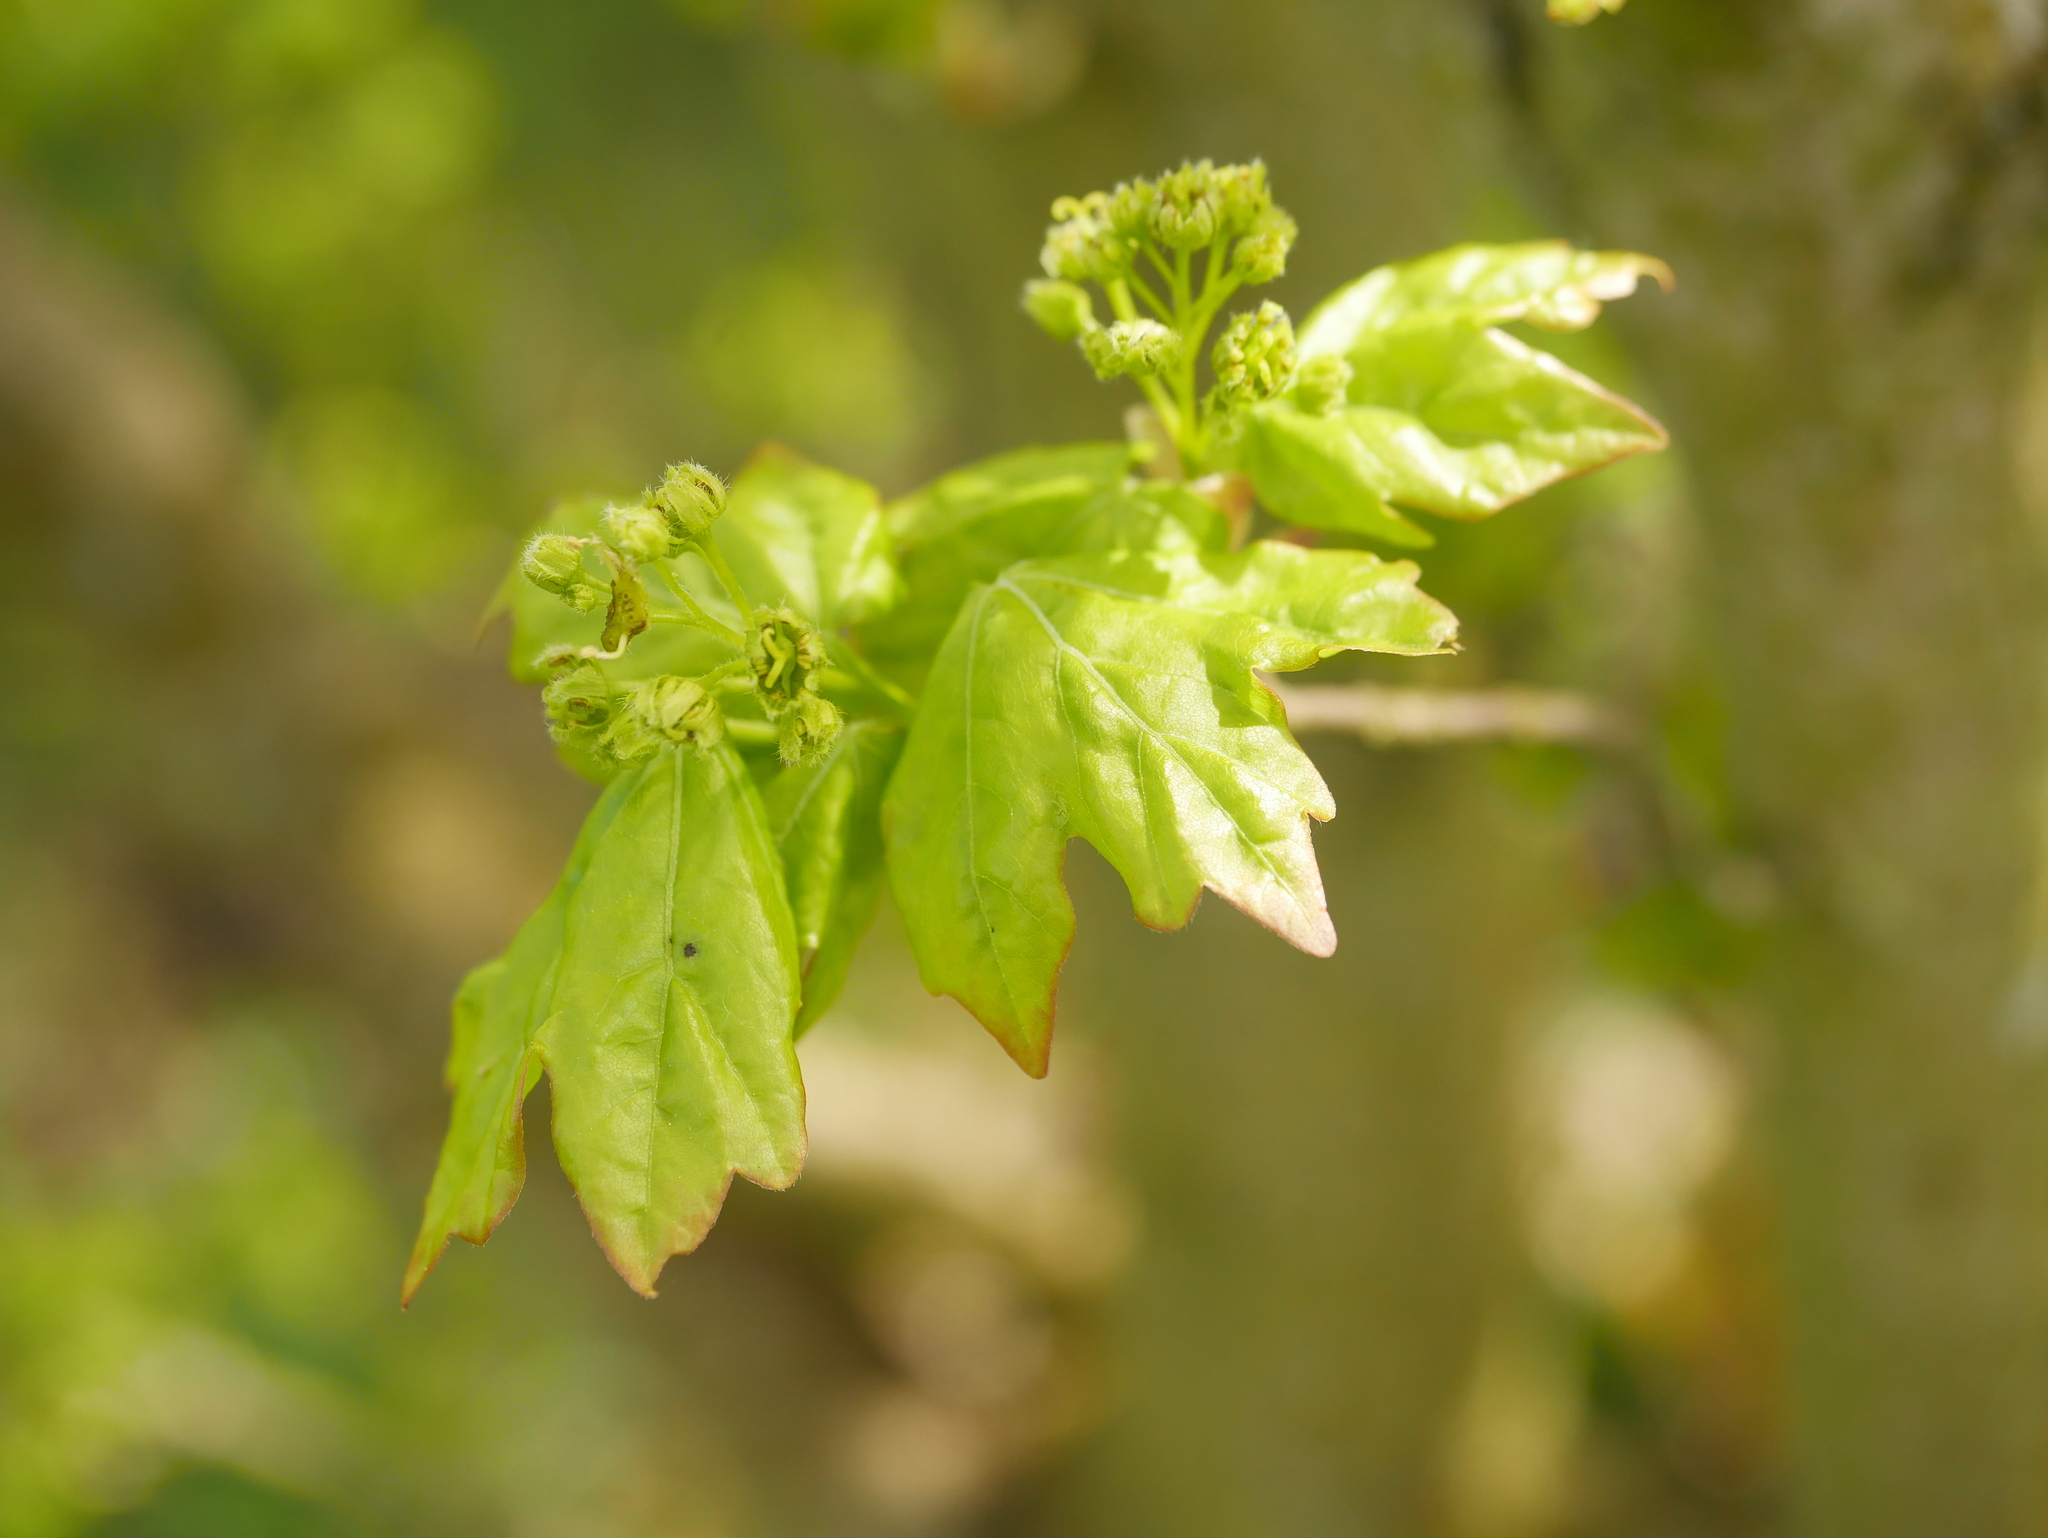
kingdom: Plantae
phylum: Tracheophyta
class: Magnoliopsida
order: Sapindales
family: Sapindaceae
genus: Acer
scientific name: Acer campestre
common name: Field maple
